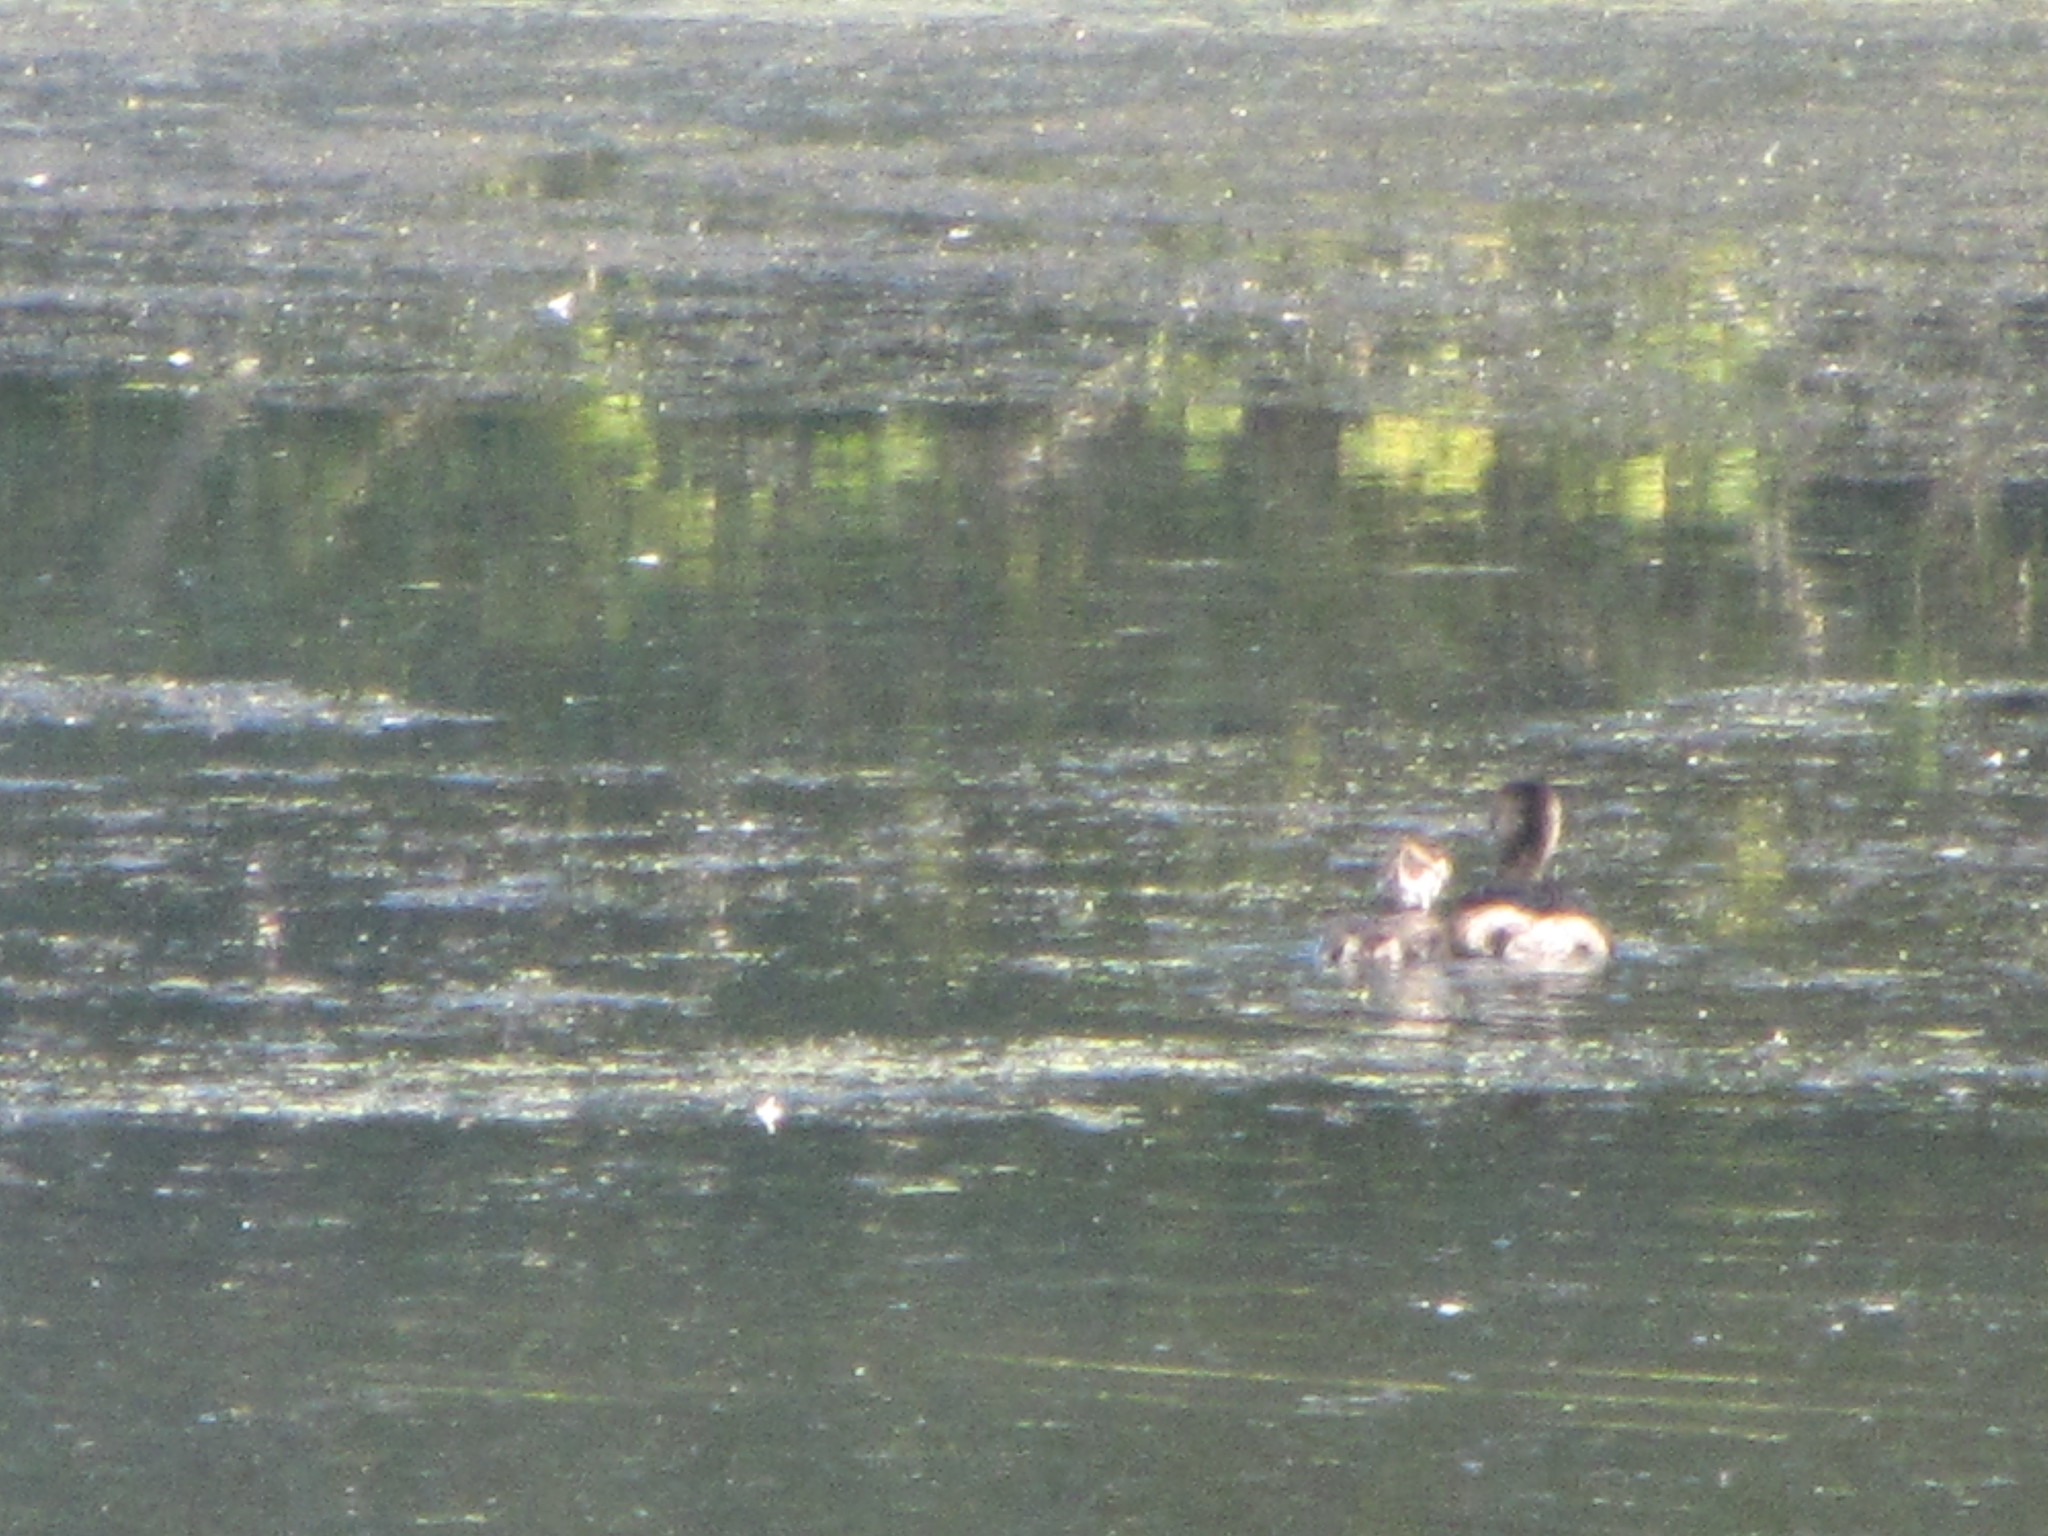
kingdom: Animalia
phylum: Chordata
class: Aves
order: Podicipediformes
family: Podicipedidae
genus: Podilymbus
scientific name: Podilymbus podiceps
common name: Pied-billed grebe
